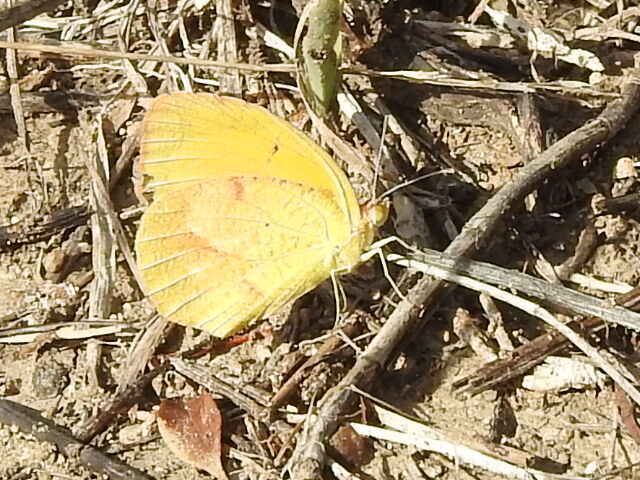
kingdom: Animalia
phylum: Arthropoda
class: Insecta
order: Lepidoptera
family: Pieridae
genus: Abaeis
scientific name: Abaeis nicippe
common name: Sleepy orange
